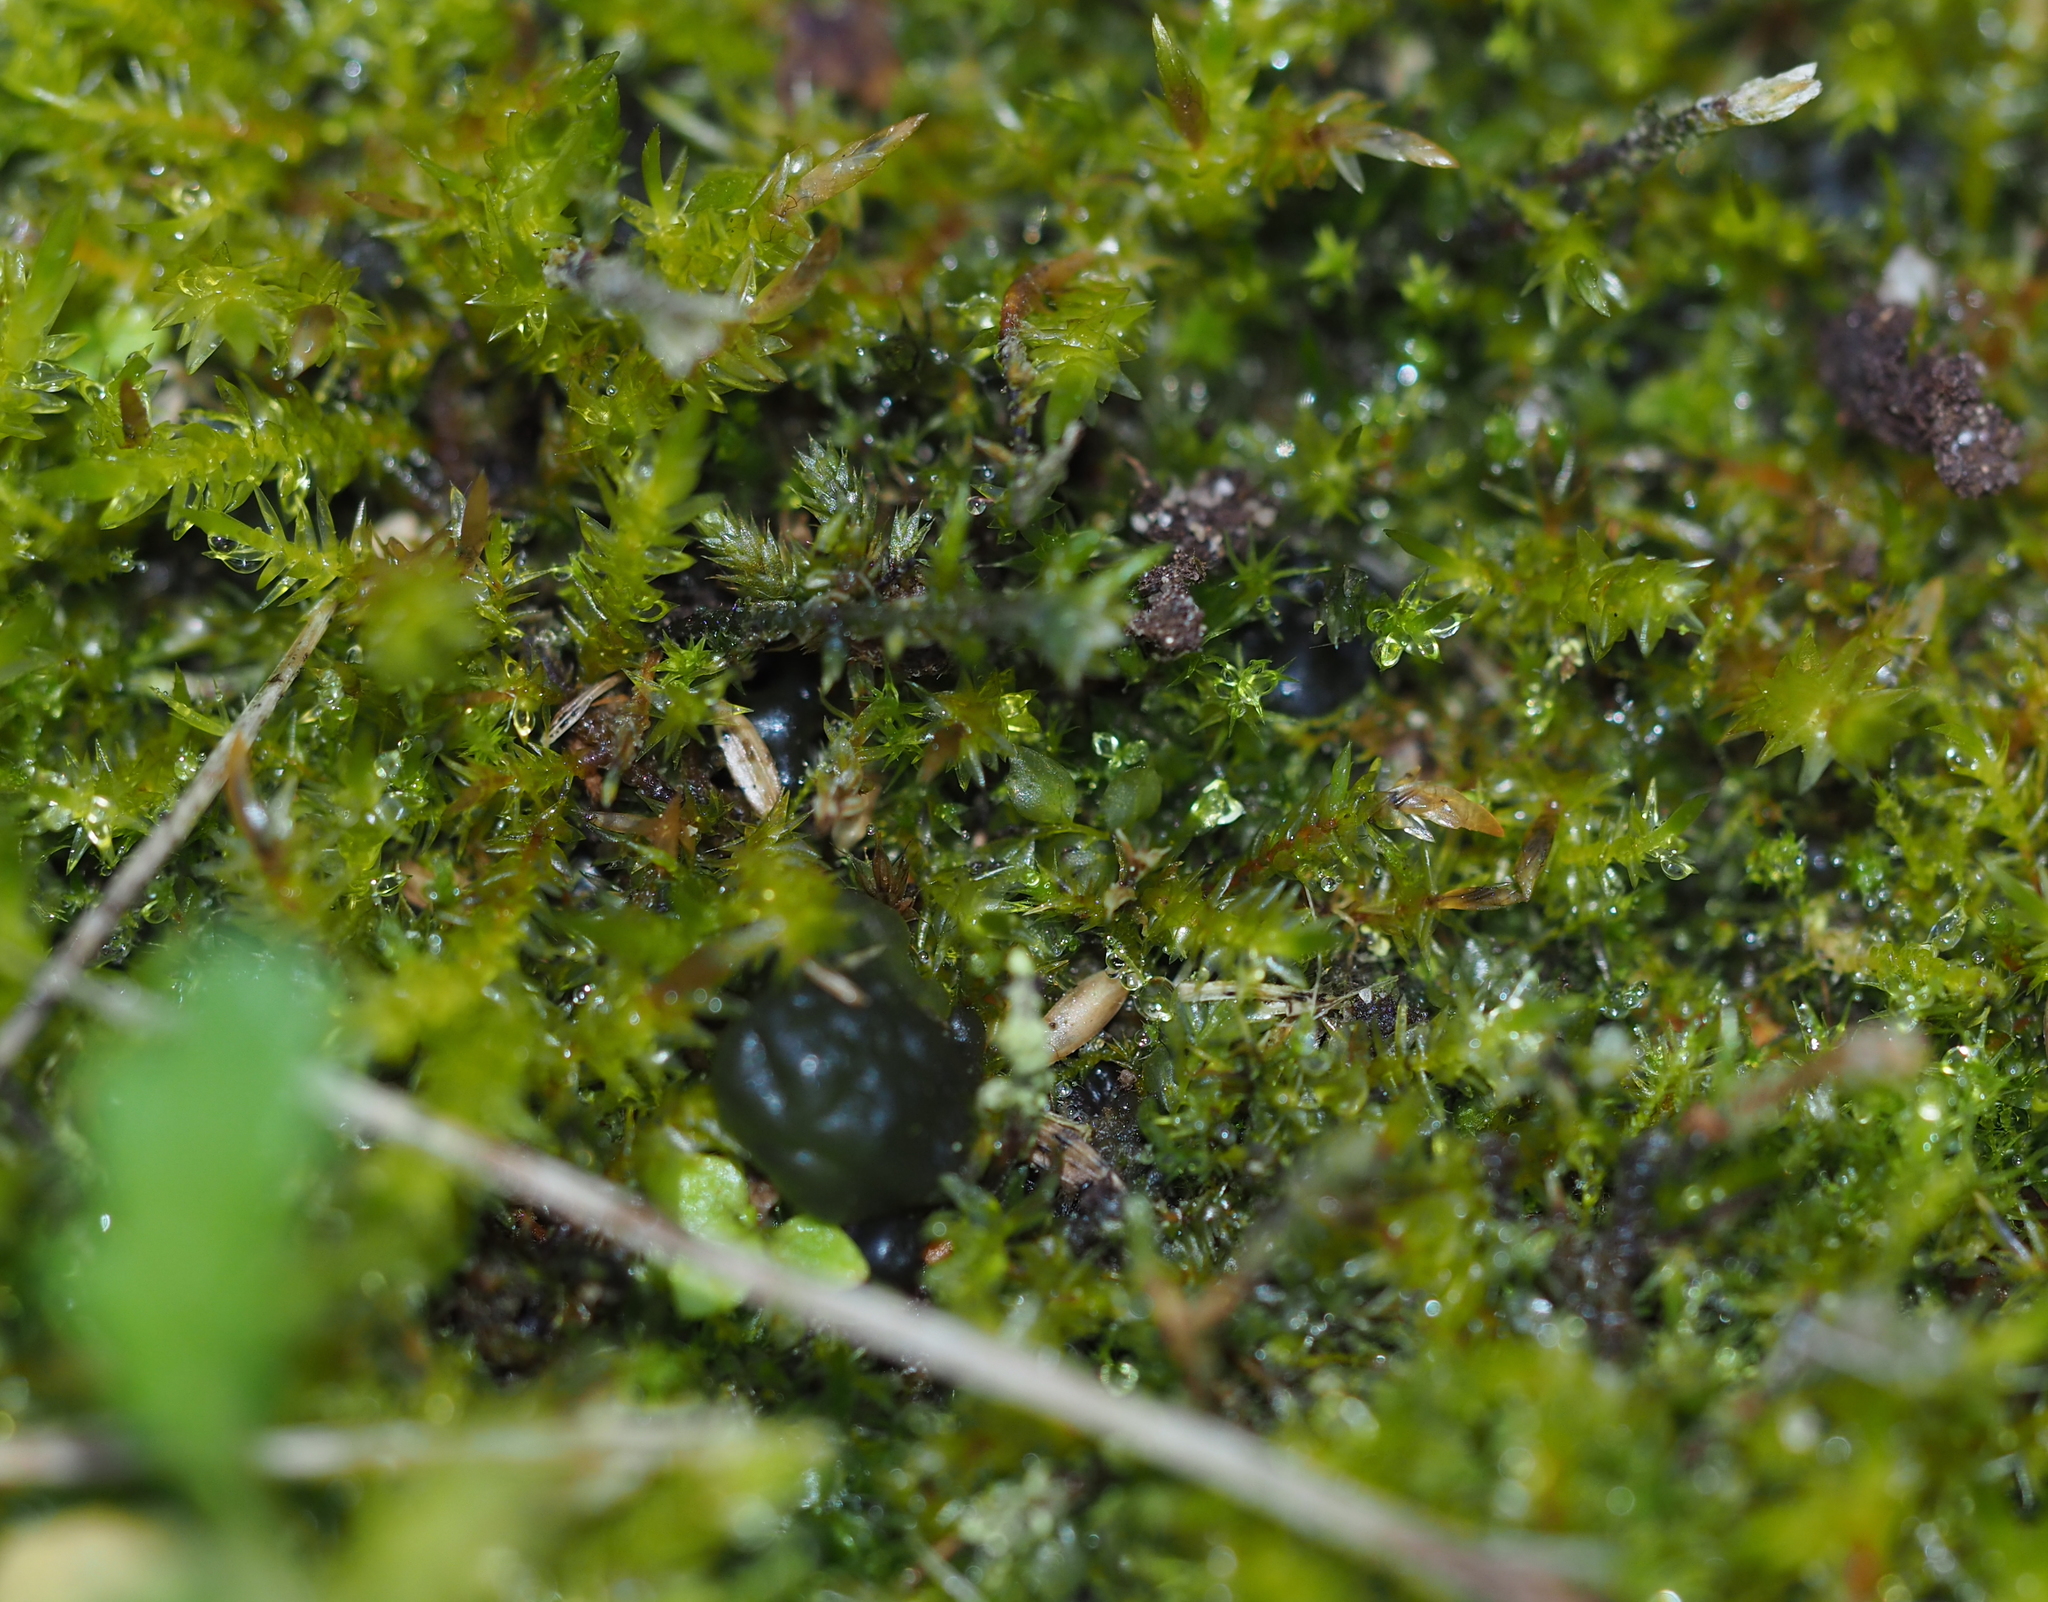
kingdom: Plantae
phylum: Bryophyta
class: Bryopsida
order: Hypnales
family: Pylaisiaceae
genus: Calliergonella
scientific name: Calliergonella cuspidata
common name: Common large wetland moss
